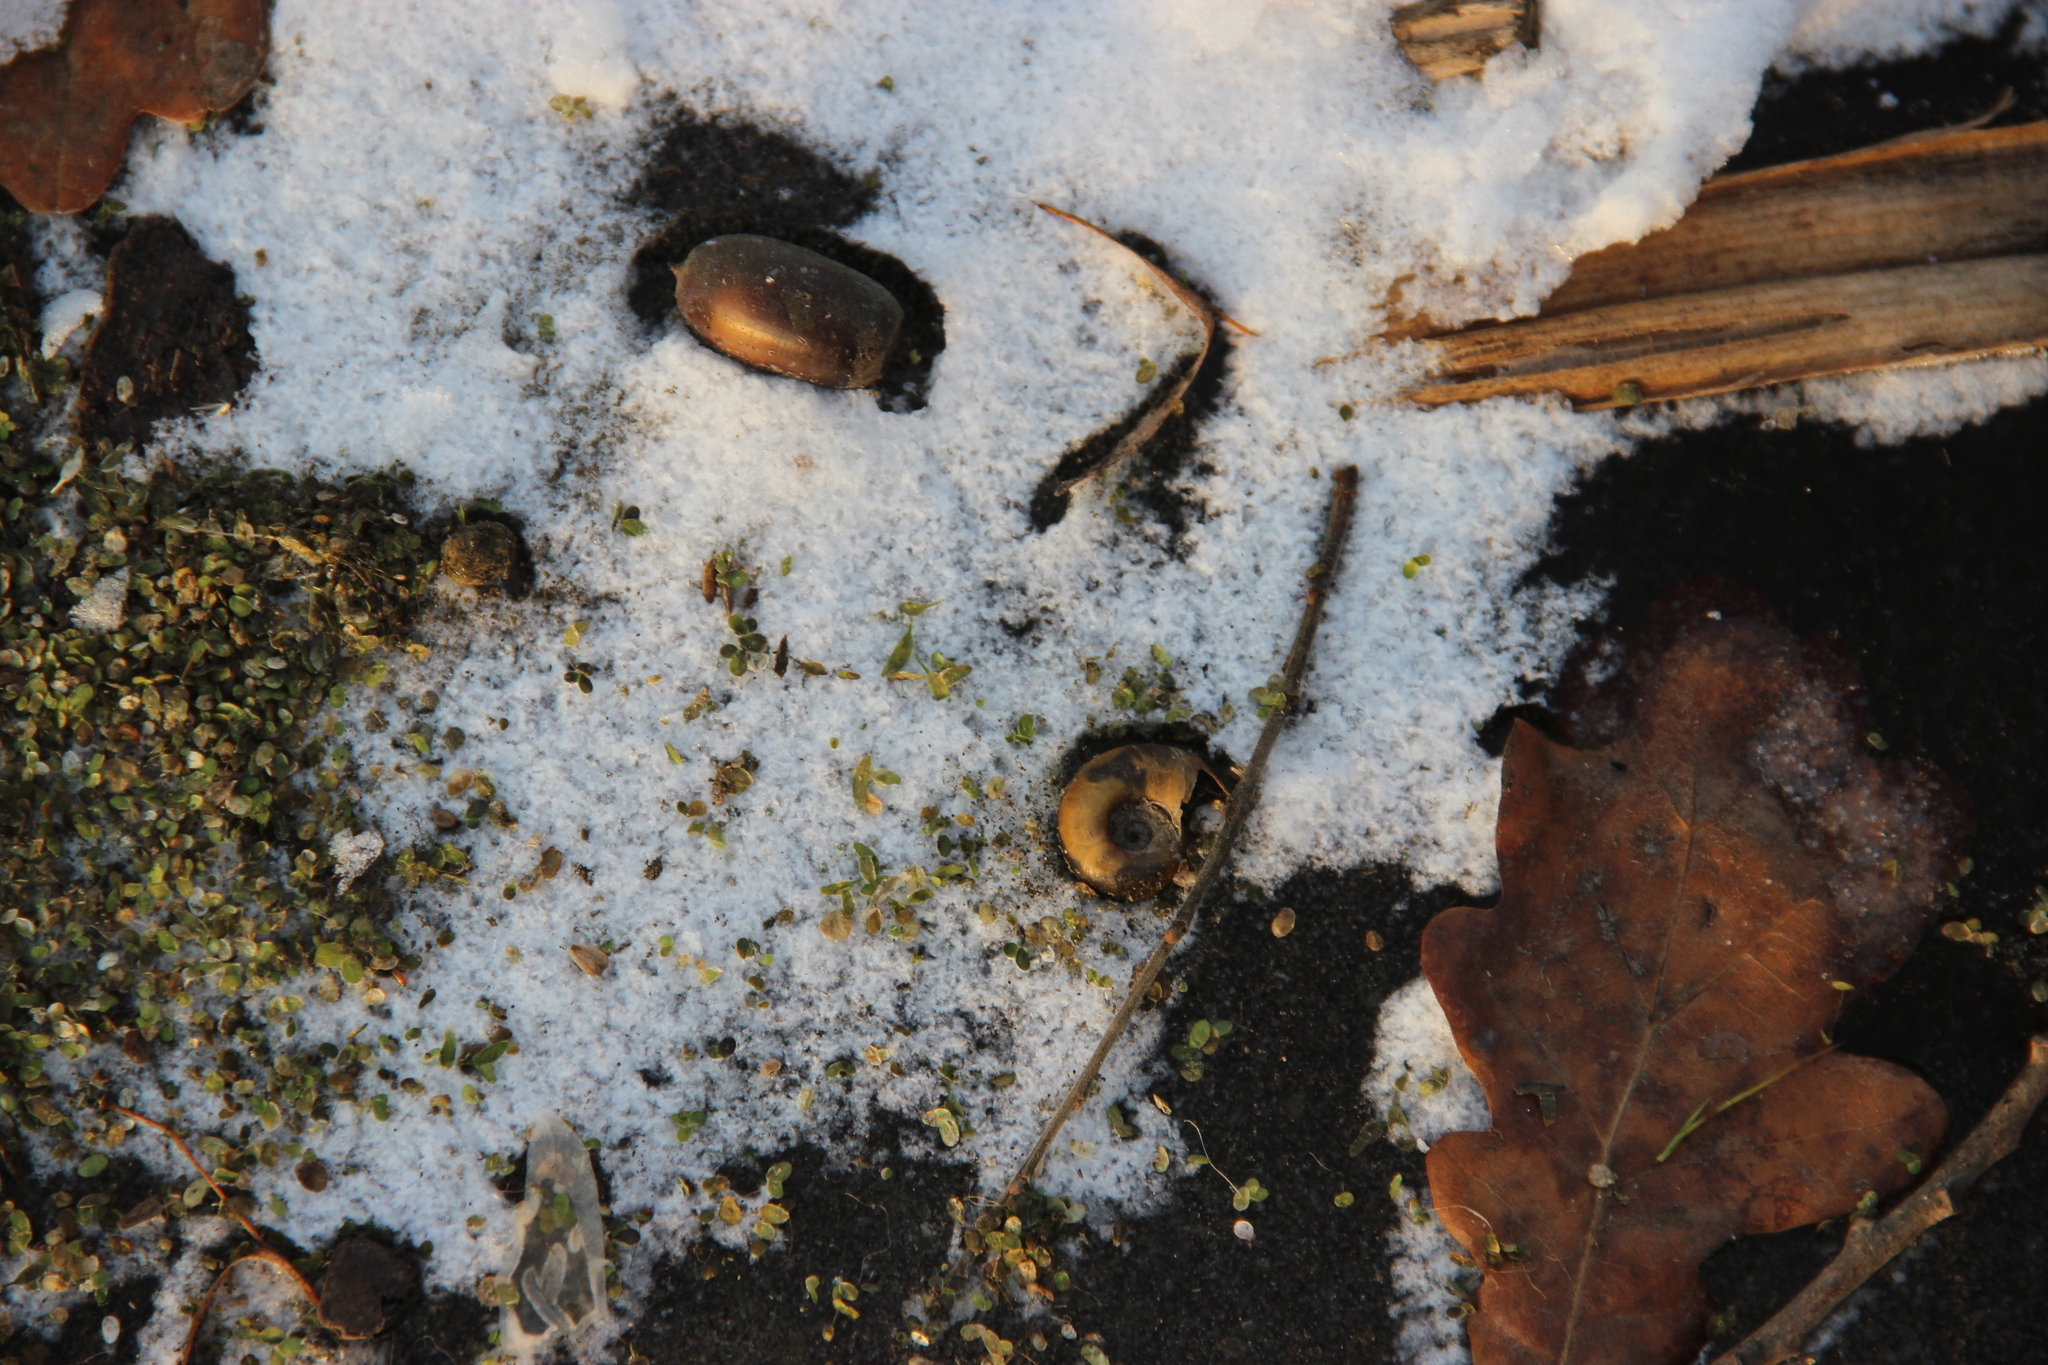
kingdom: Animalia
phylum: Mollusca
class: Gastropoda
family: Planorbidae
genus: Planorbarius
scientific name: Planorbarius corneus
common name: Great ramshorn
